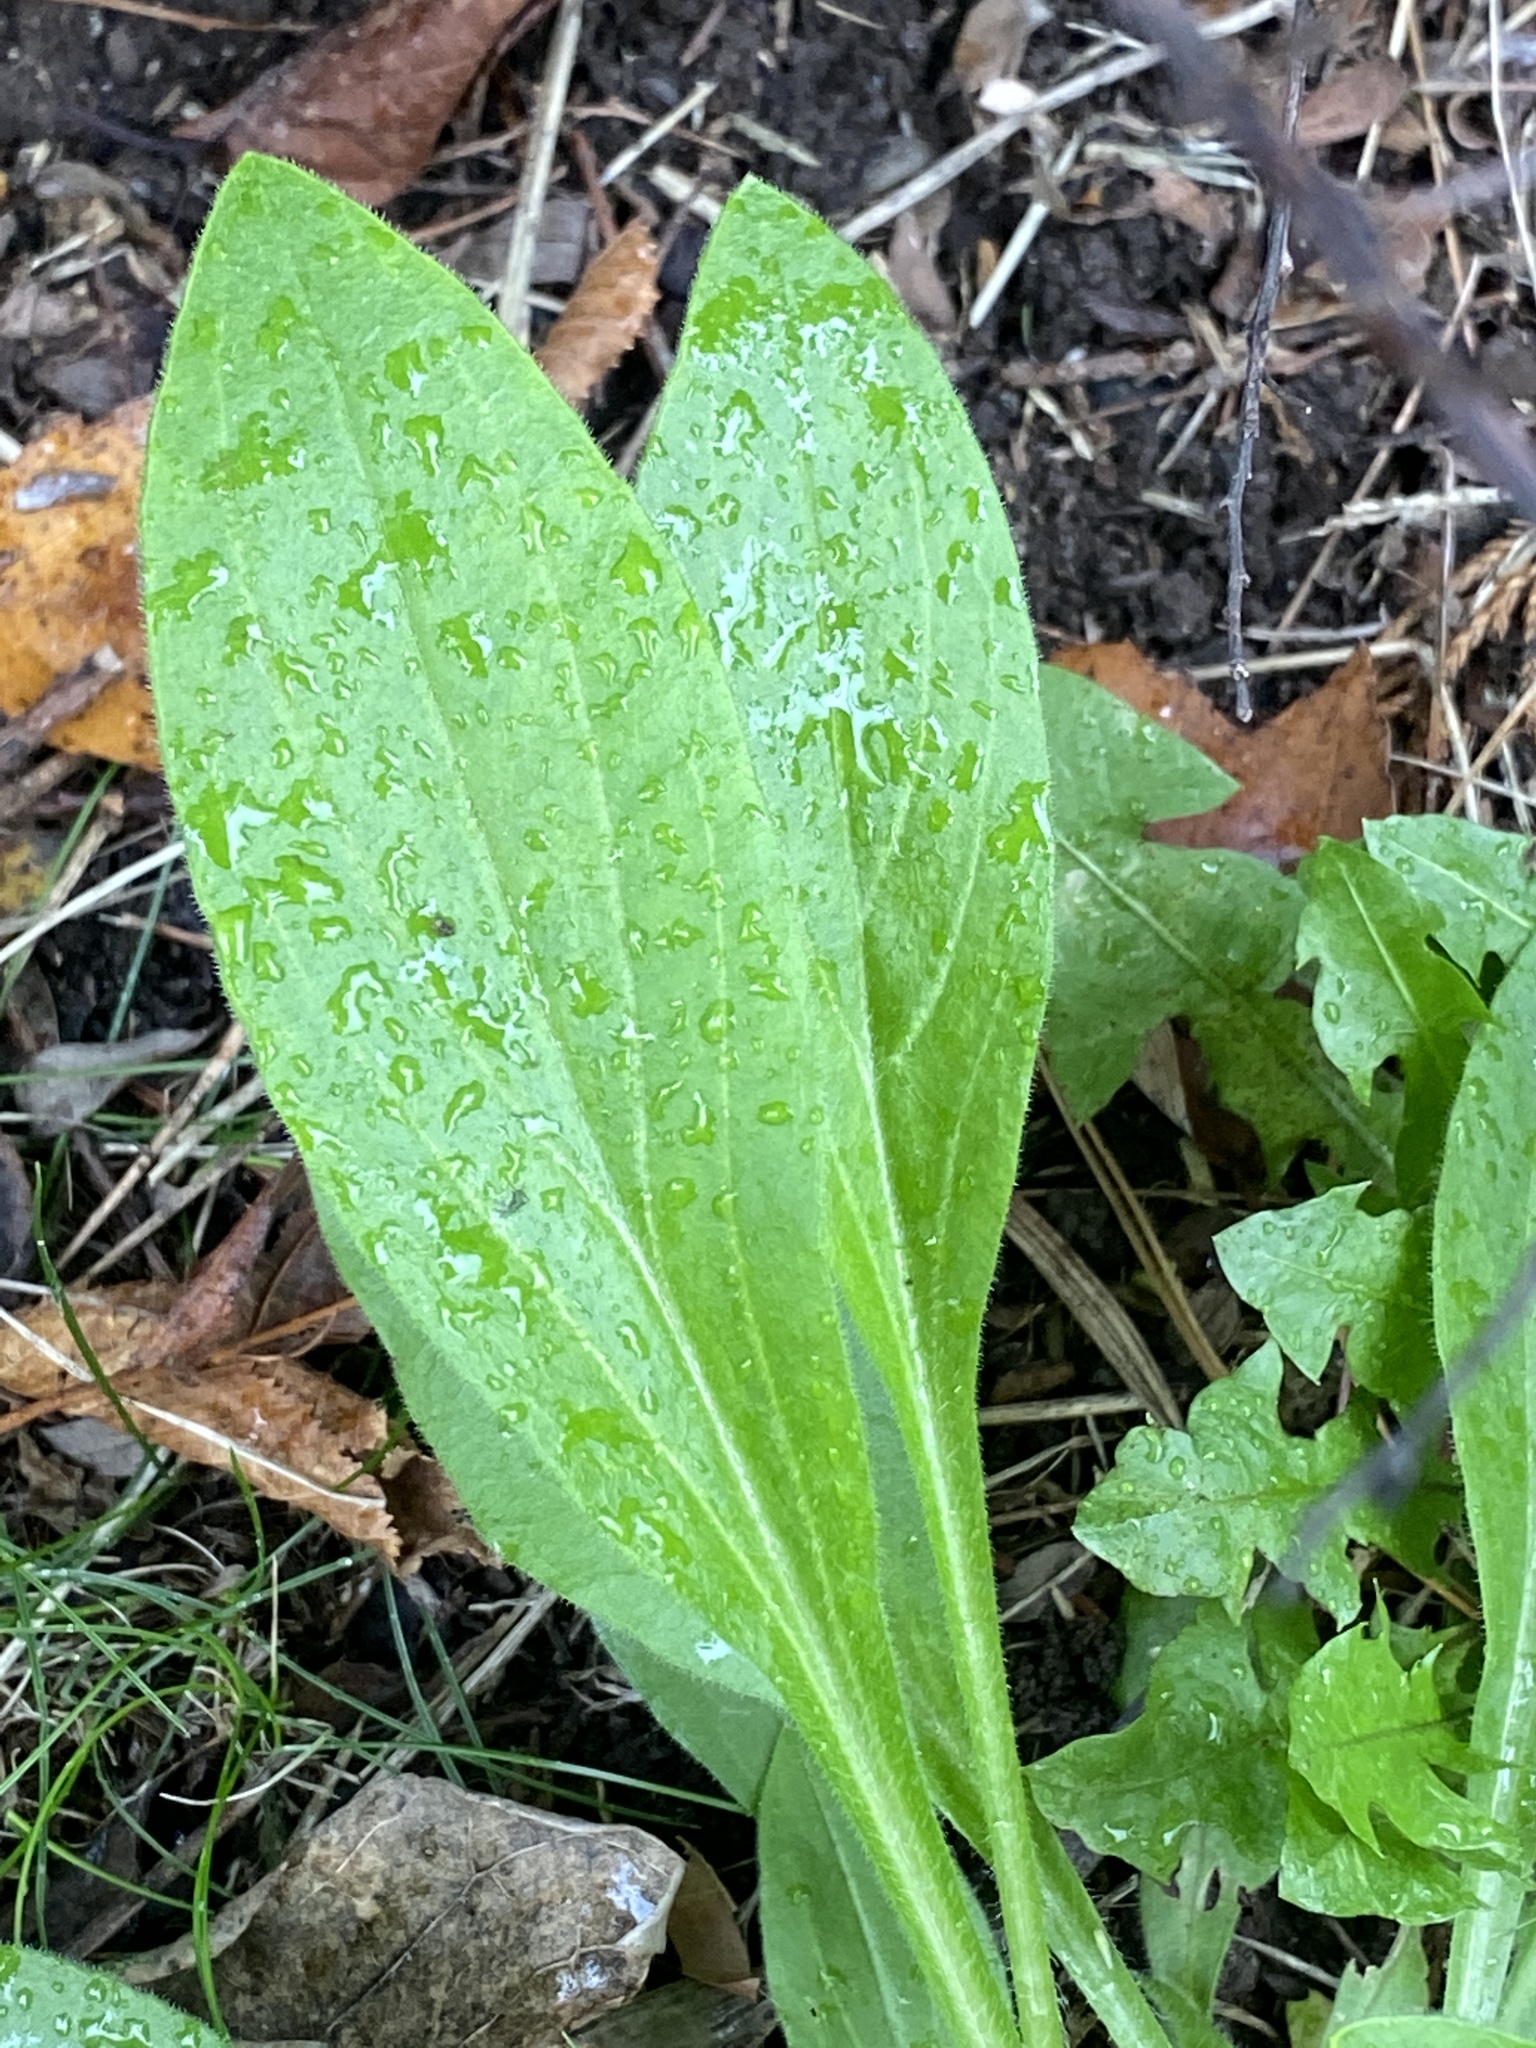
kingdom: Plantae
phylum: Tracheophyta
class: Magnoliopsida
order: Caryophyllales
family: Caryophyllaceae
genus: Silene
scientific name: Silene latifolia
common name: White campion
